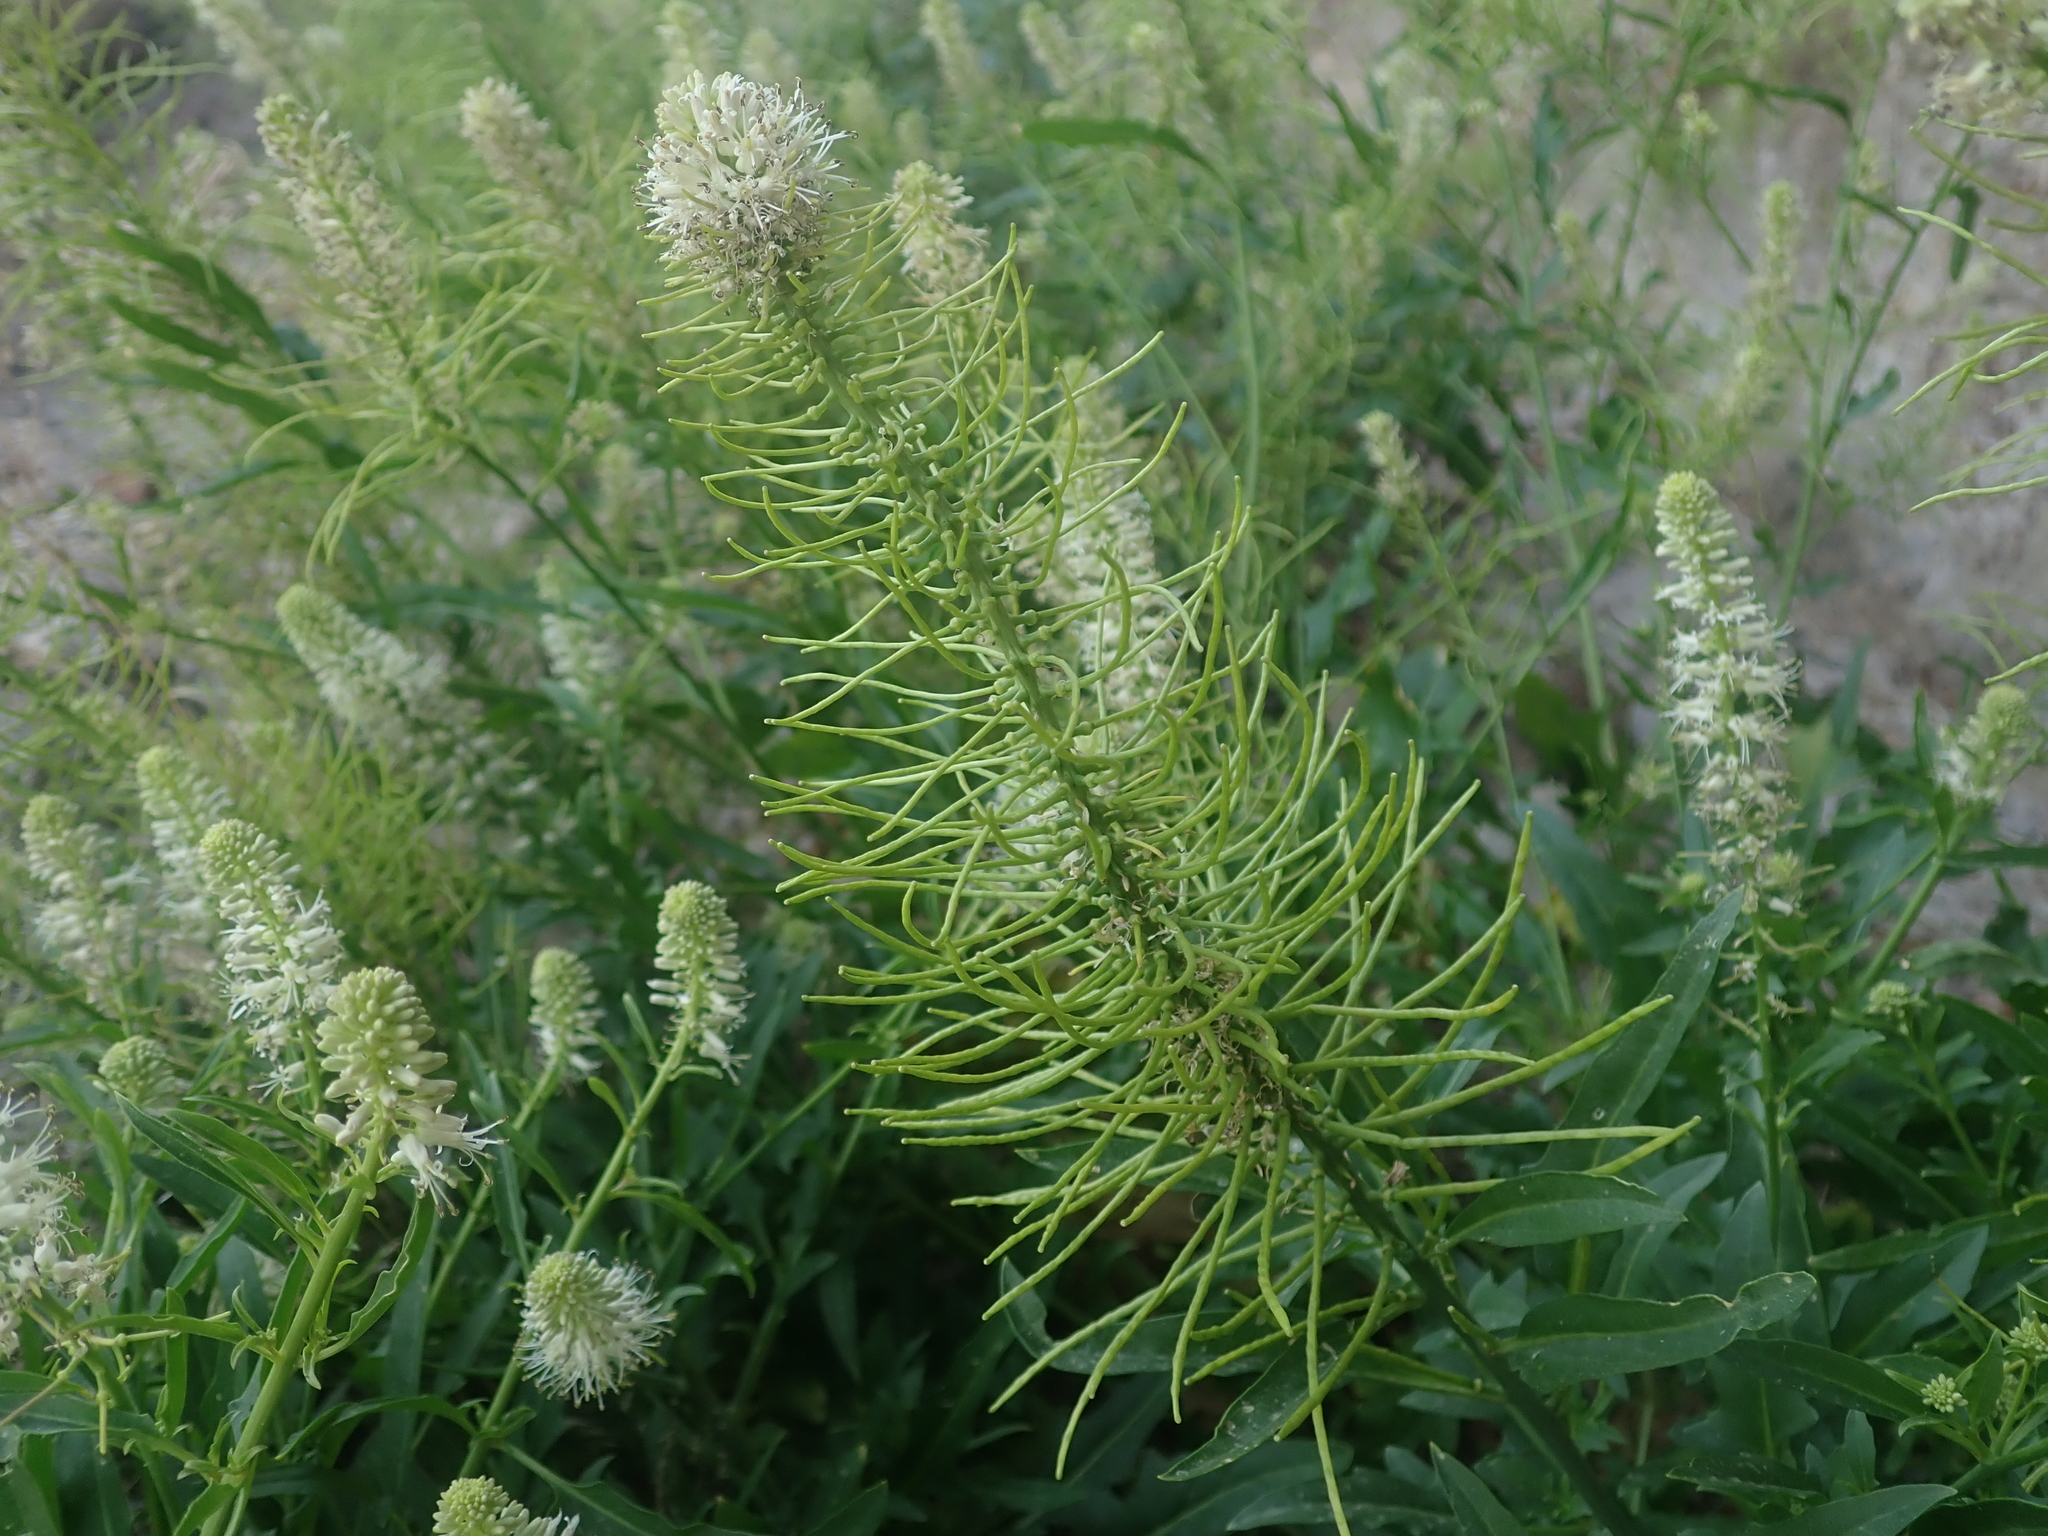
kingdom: Plantae
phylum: Tracheophyta
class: Magnoliopsida
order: Brassicales
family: Brassicaceae
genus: Thelypodium
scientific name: Thelypodium laciniatum
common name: Cut-leaved thelypody
